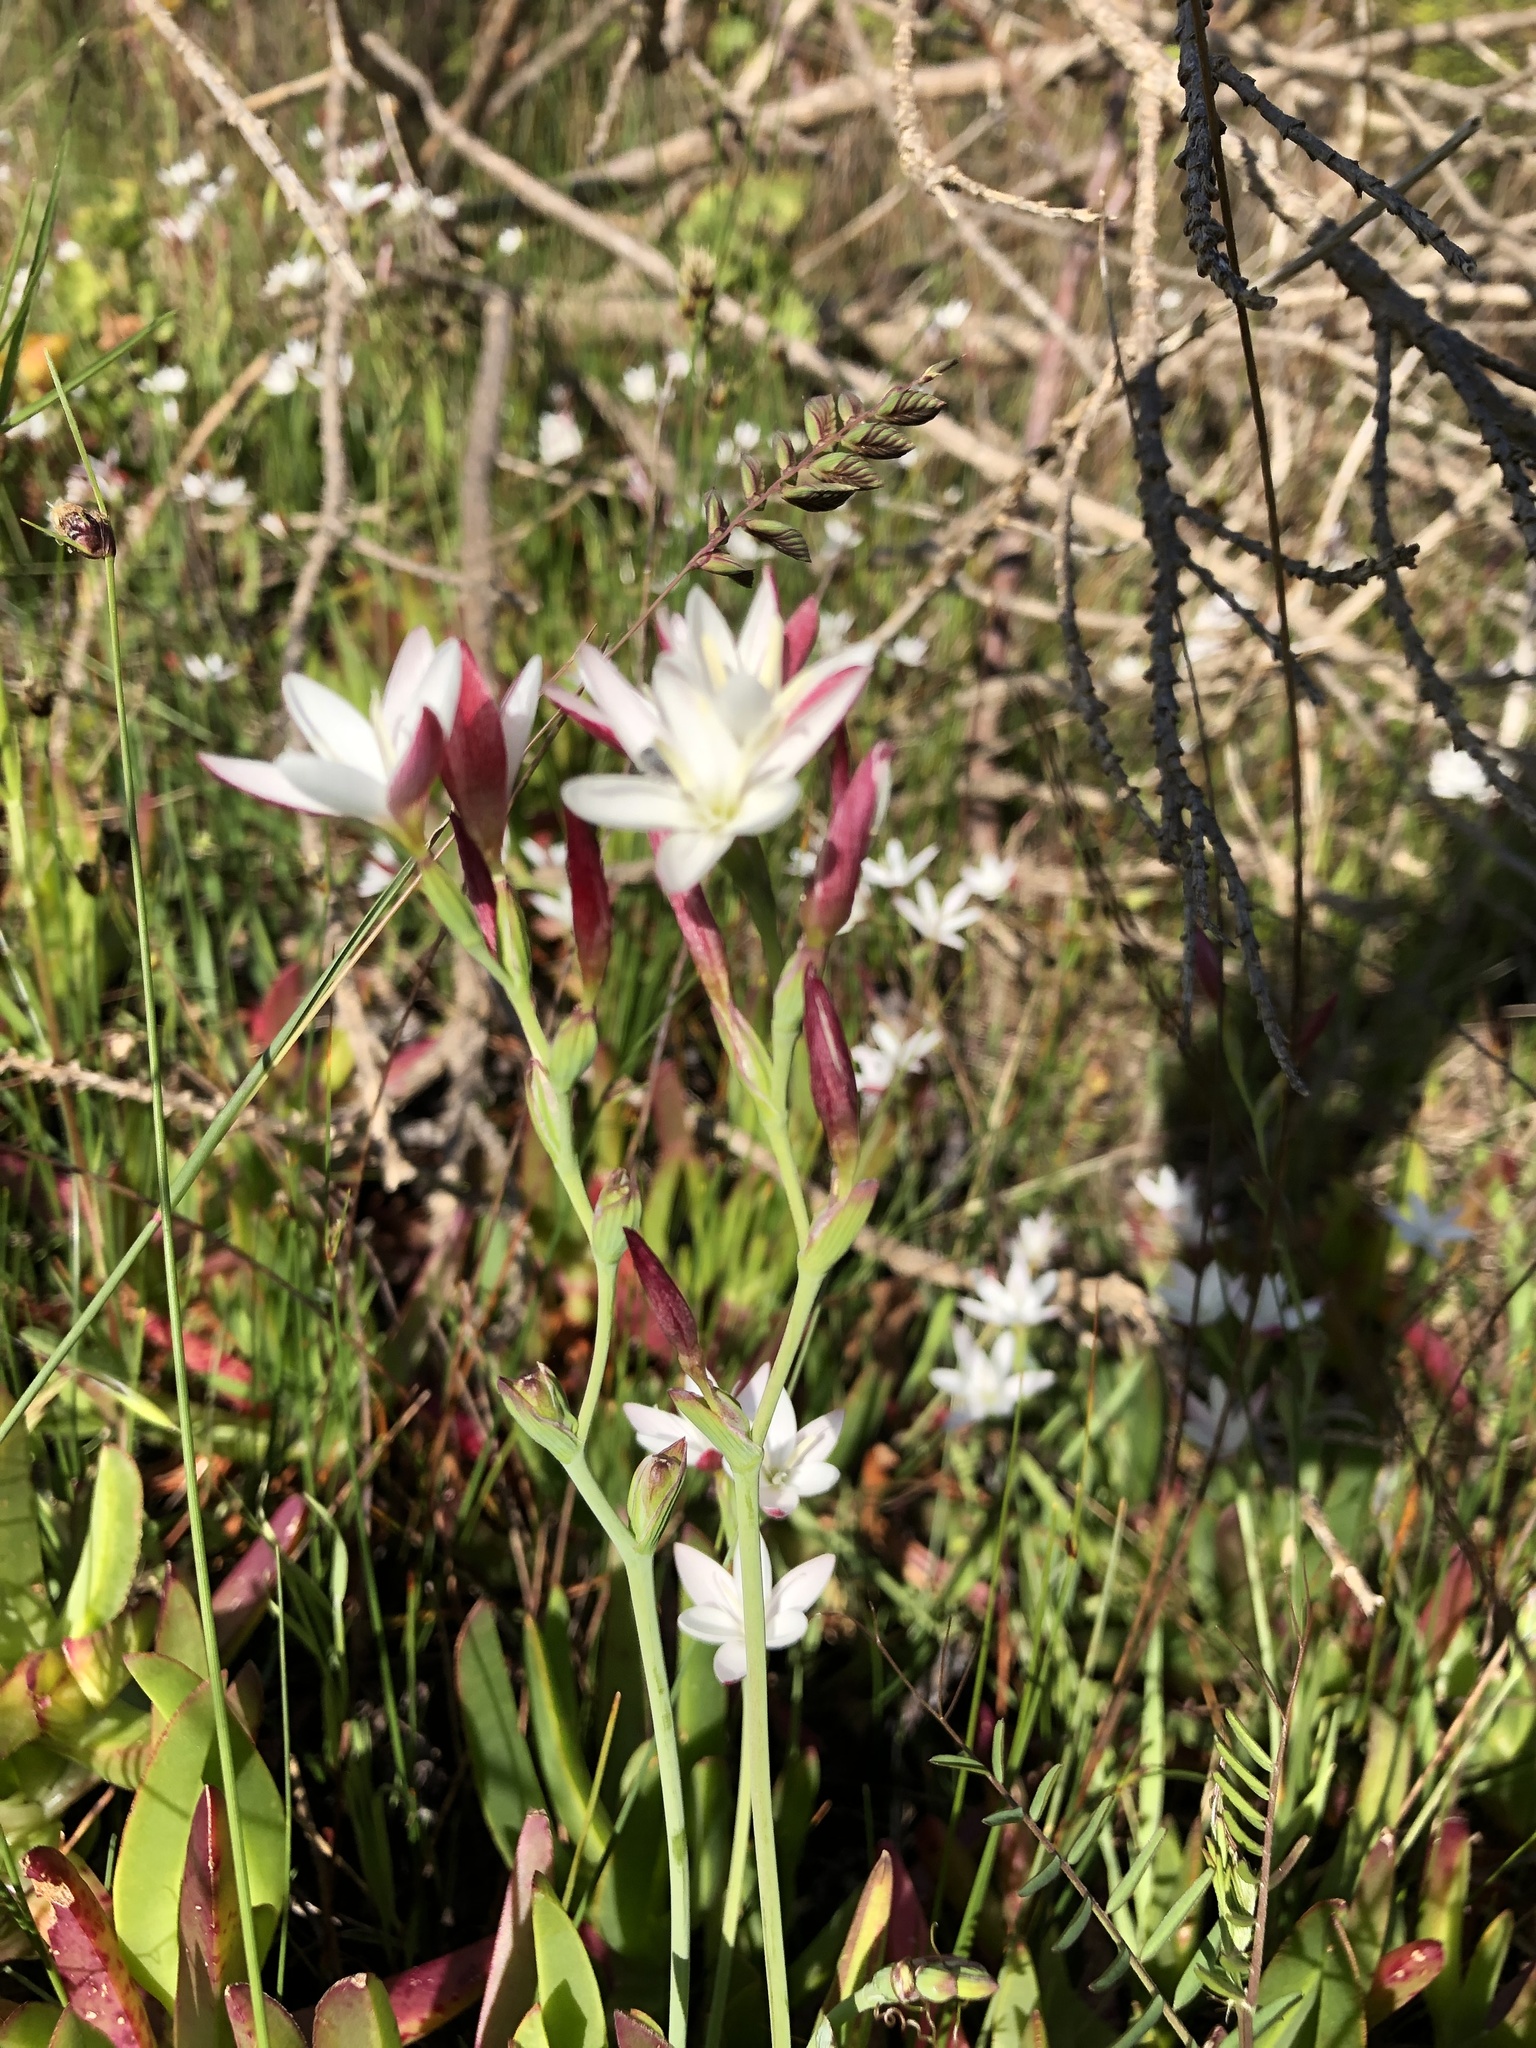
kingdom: Plantae
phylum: Tracheophyta
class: Liliopsida
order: Asparagales
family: Iridaceae
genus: Hesperantha
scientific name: Hesperantha falcata
